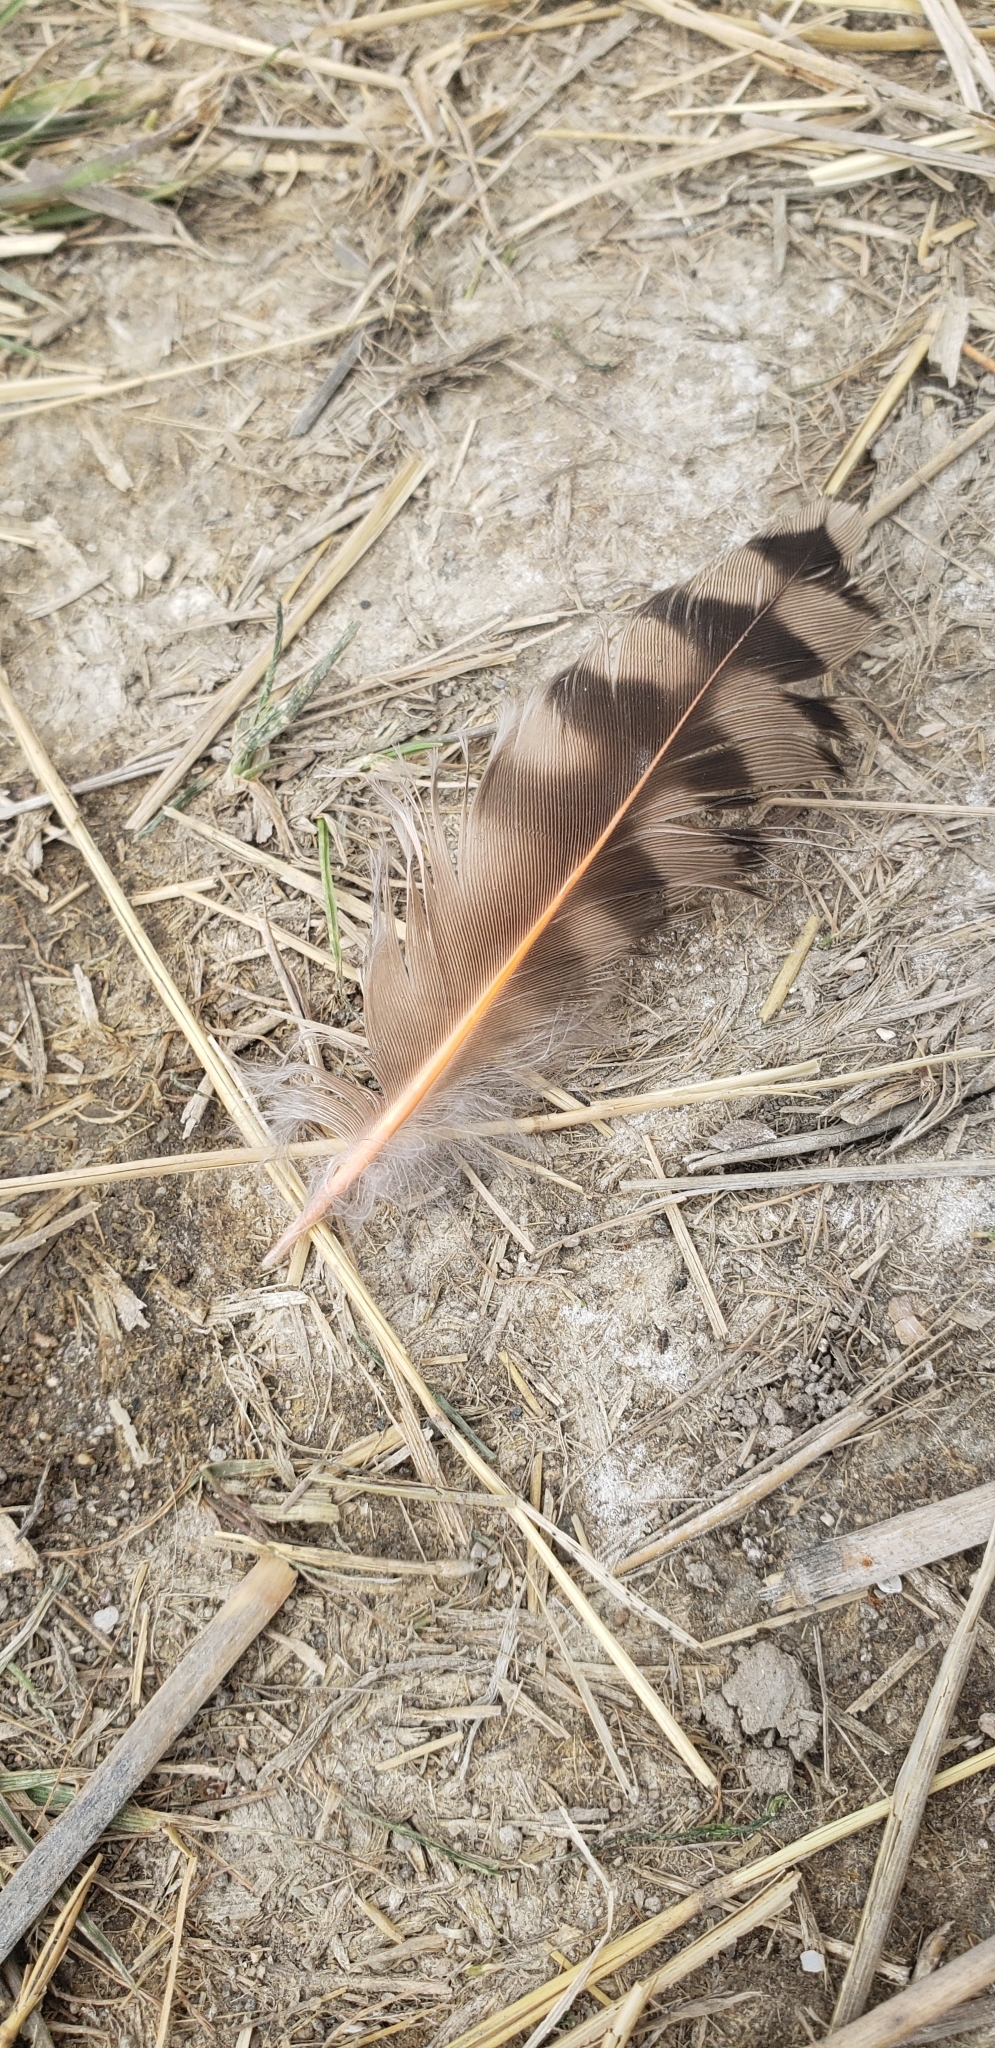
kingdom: Animalia
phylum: Chordata
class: Aves
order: Piciformes
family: Picidae
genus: Colaptes
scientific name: Colaptes auratus
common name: Northern flicker
